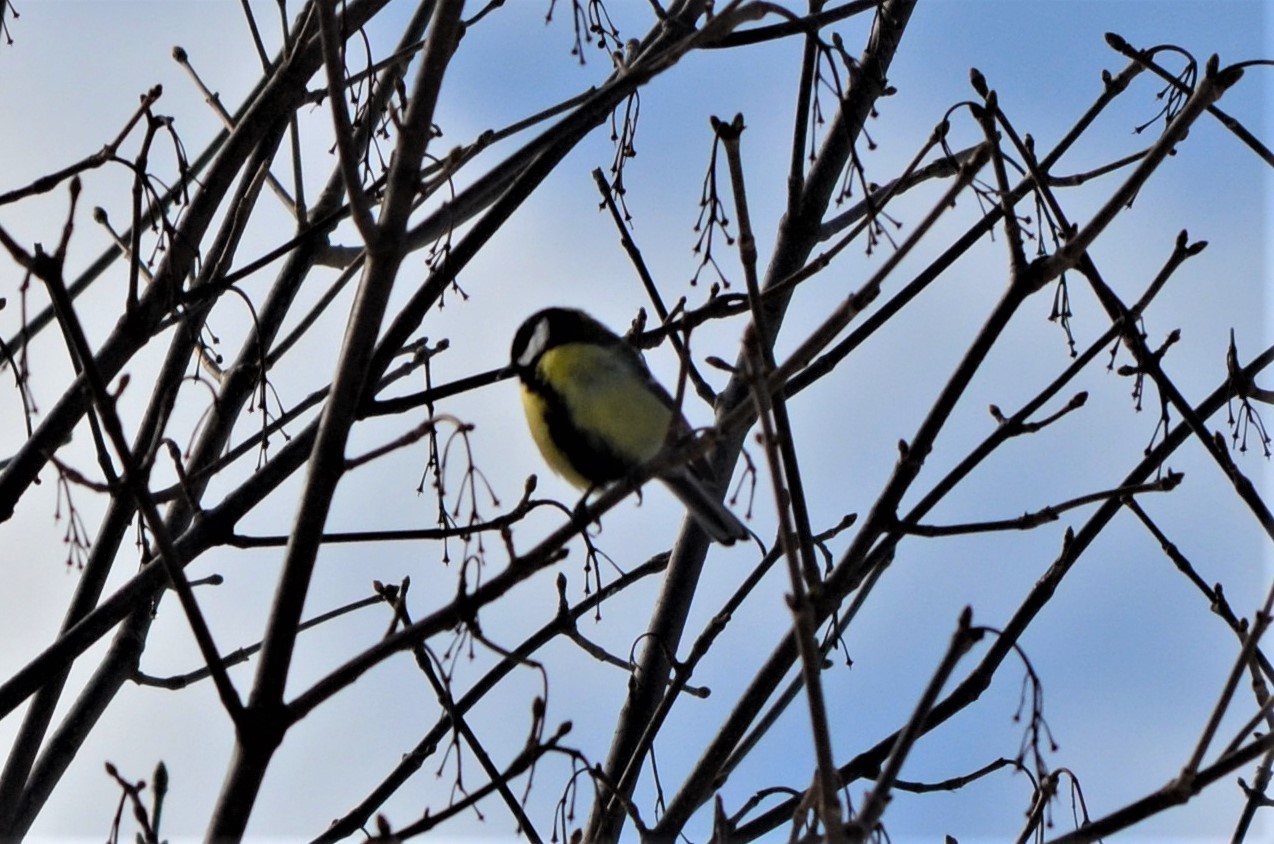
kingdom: Animalia
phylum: Chordata
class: Aves
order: Passeriformes
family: Paridae
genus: Parus
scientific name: Parus major
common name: Great tit
